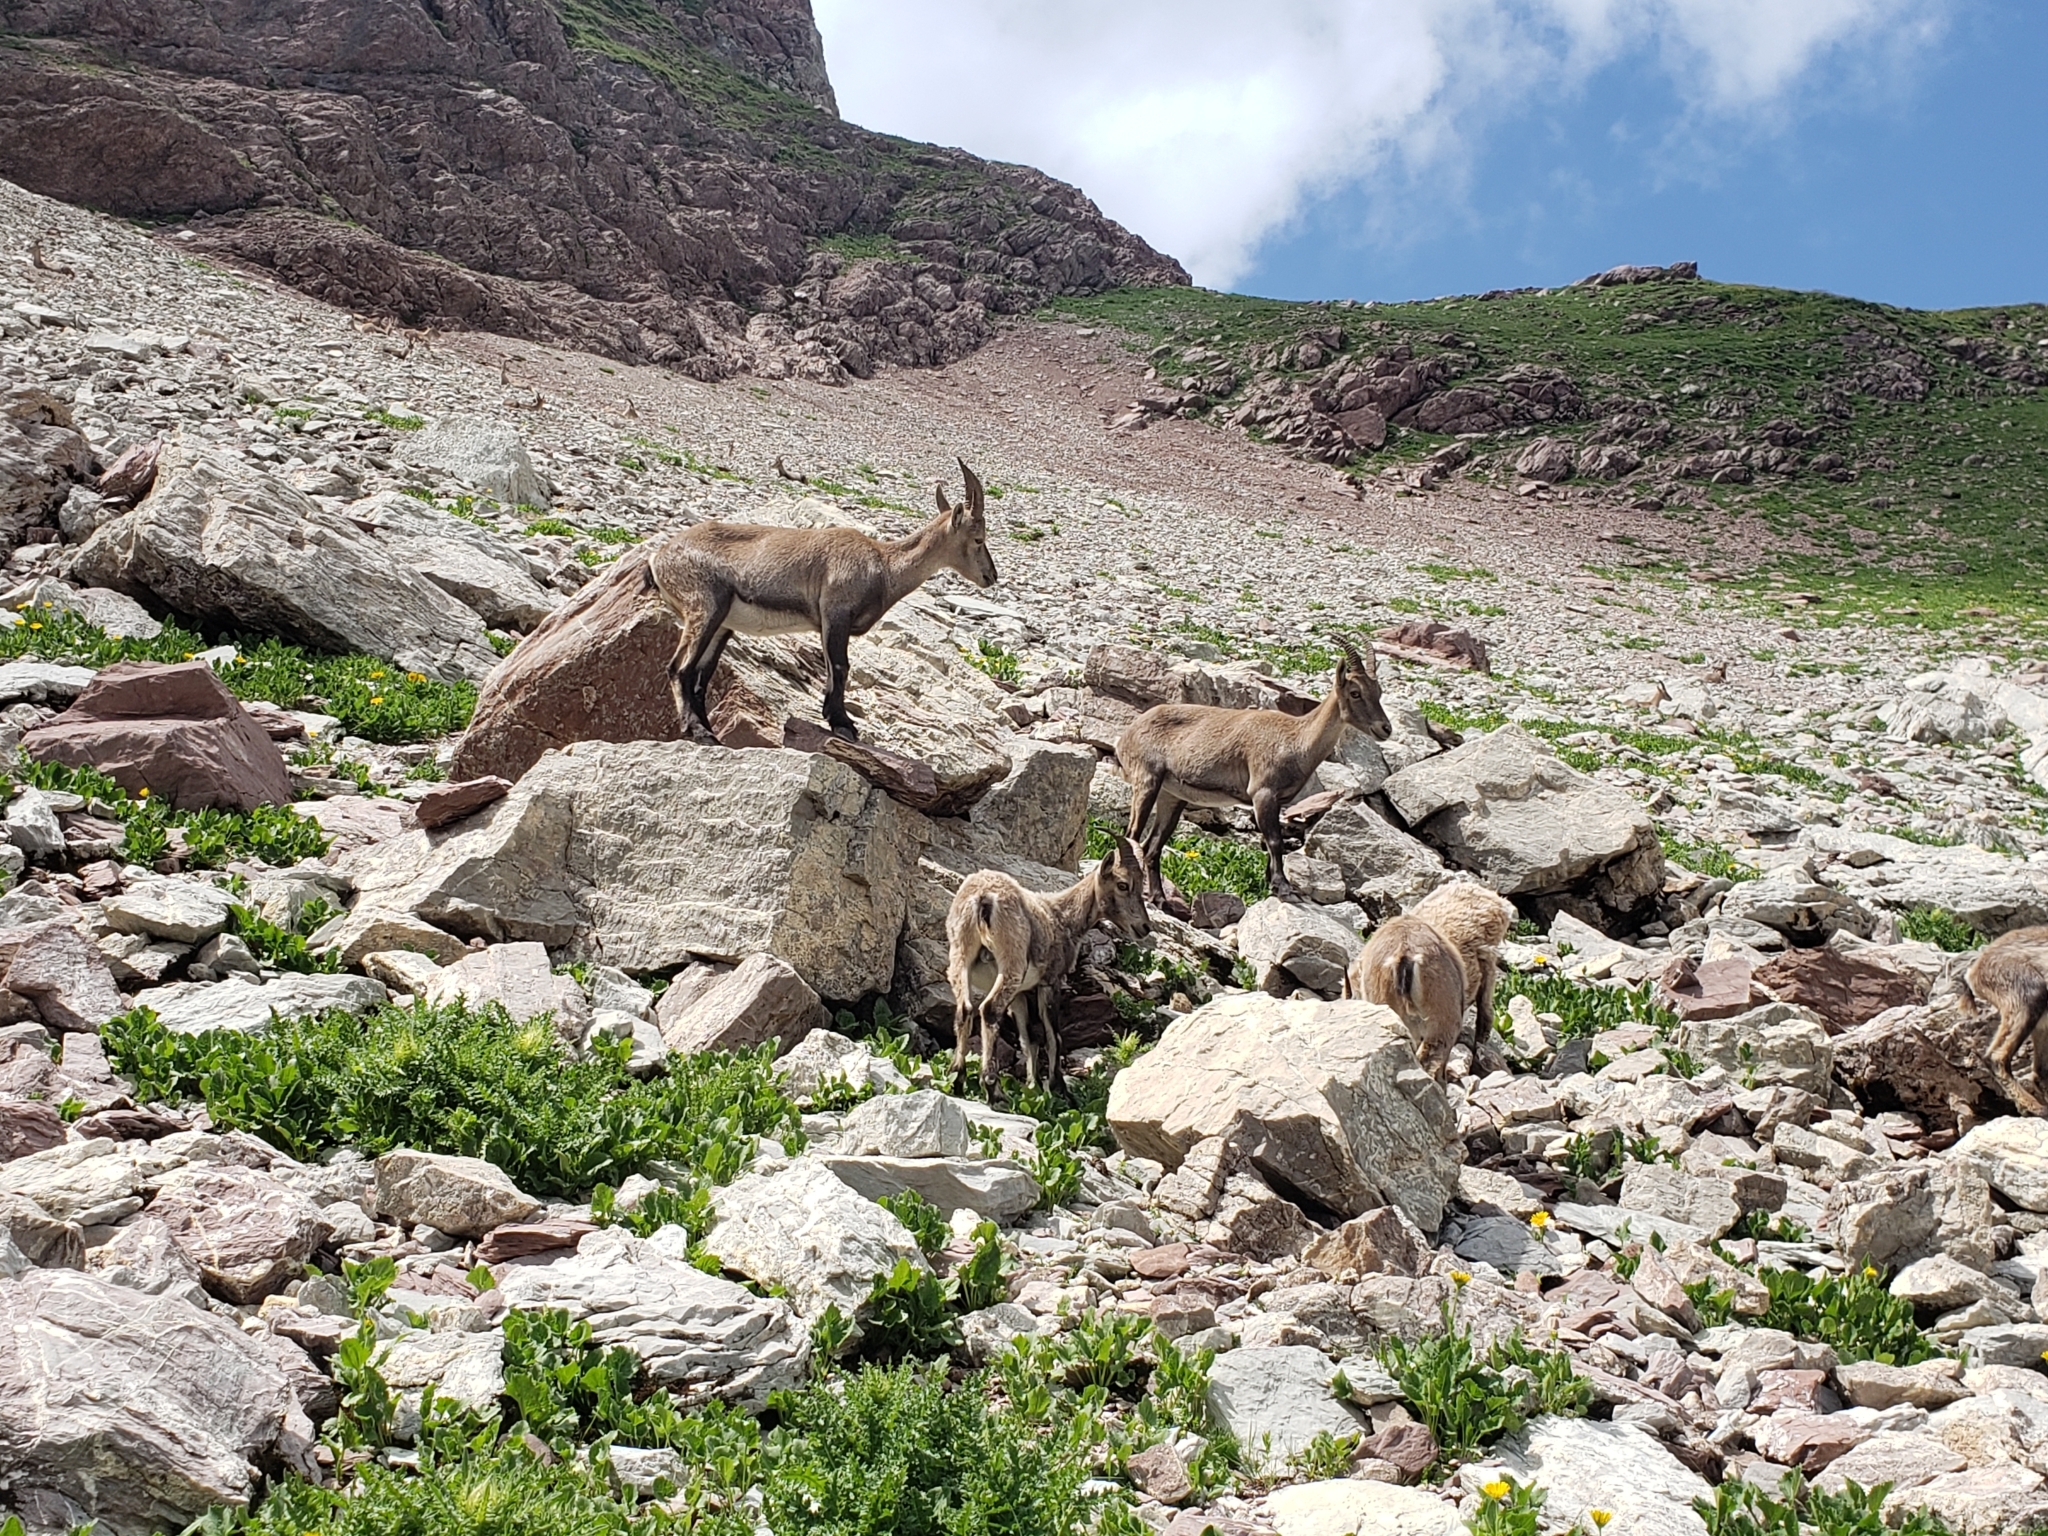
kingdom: Animalia
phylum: Chordata
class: Mammalia
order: Artiodactyla
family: Bovidae
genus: Capra
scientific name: Capra ibex
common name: Alpine ibex
